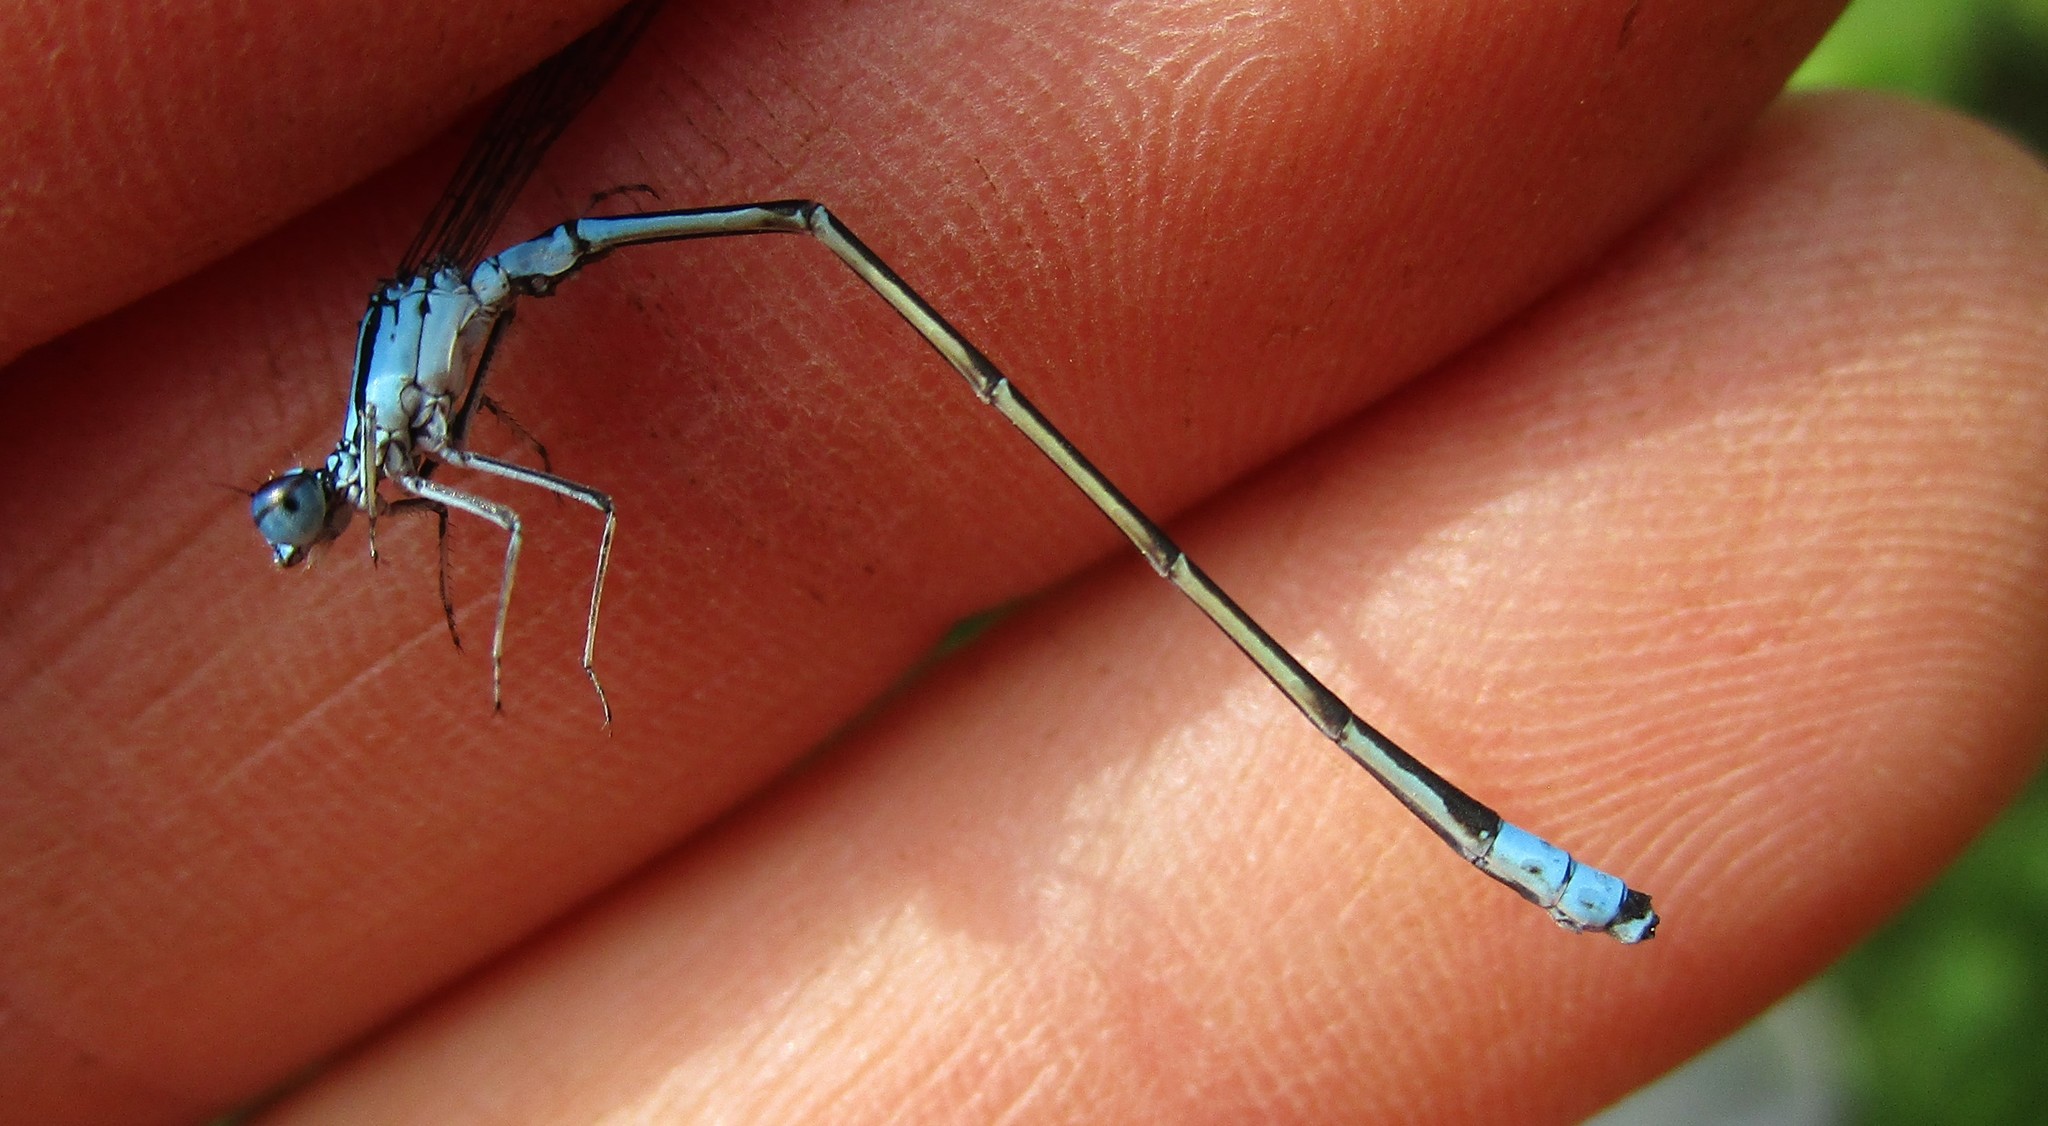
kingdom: Animalia
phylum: Arthropoda
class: Insecta
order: Odonata
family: Coenagrionidae
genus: Enallagma
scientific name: Enallagma divagans
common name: Turquoise bluet
